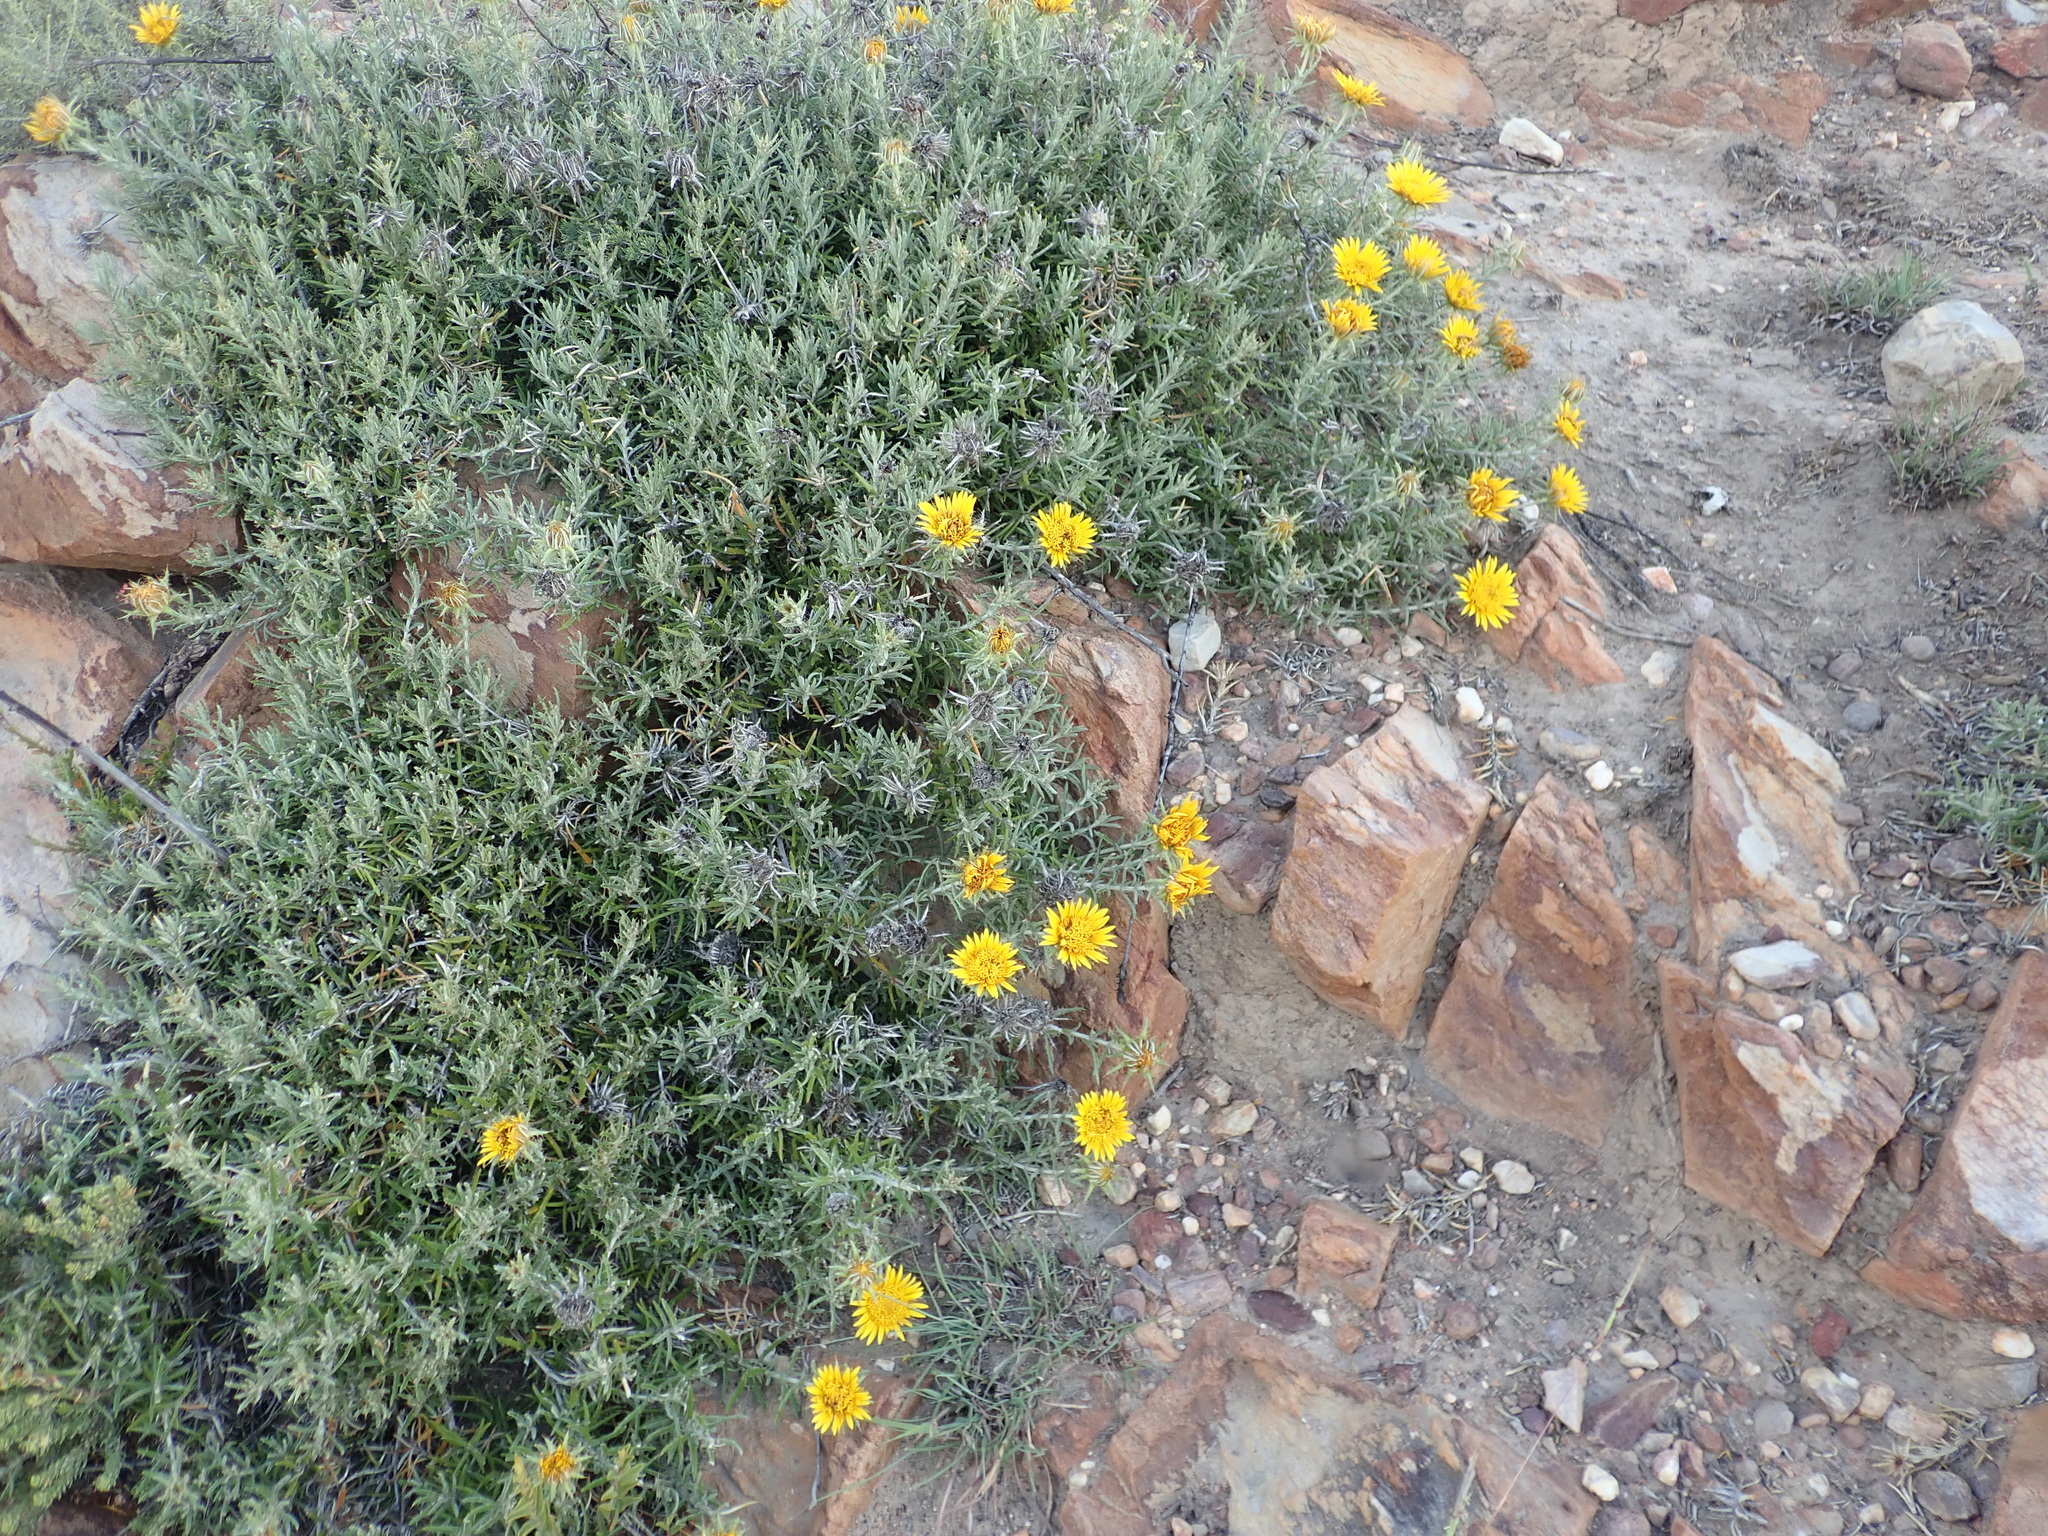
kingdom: Plantae
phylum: Tracheophyta
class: Magnoliopsida
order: Asterales
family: Asteraceae
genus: Berkheya
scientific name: Berkheya angustifolia
